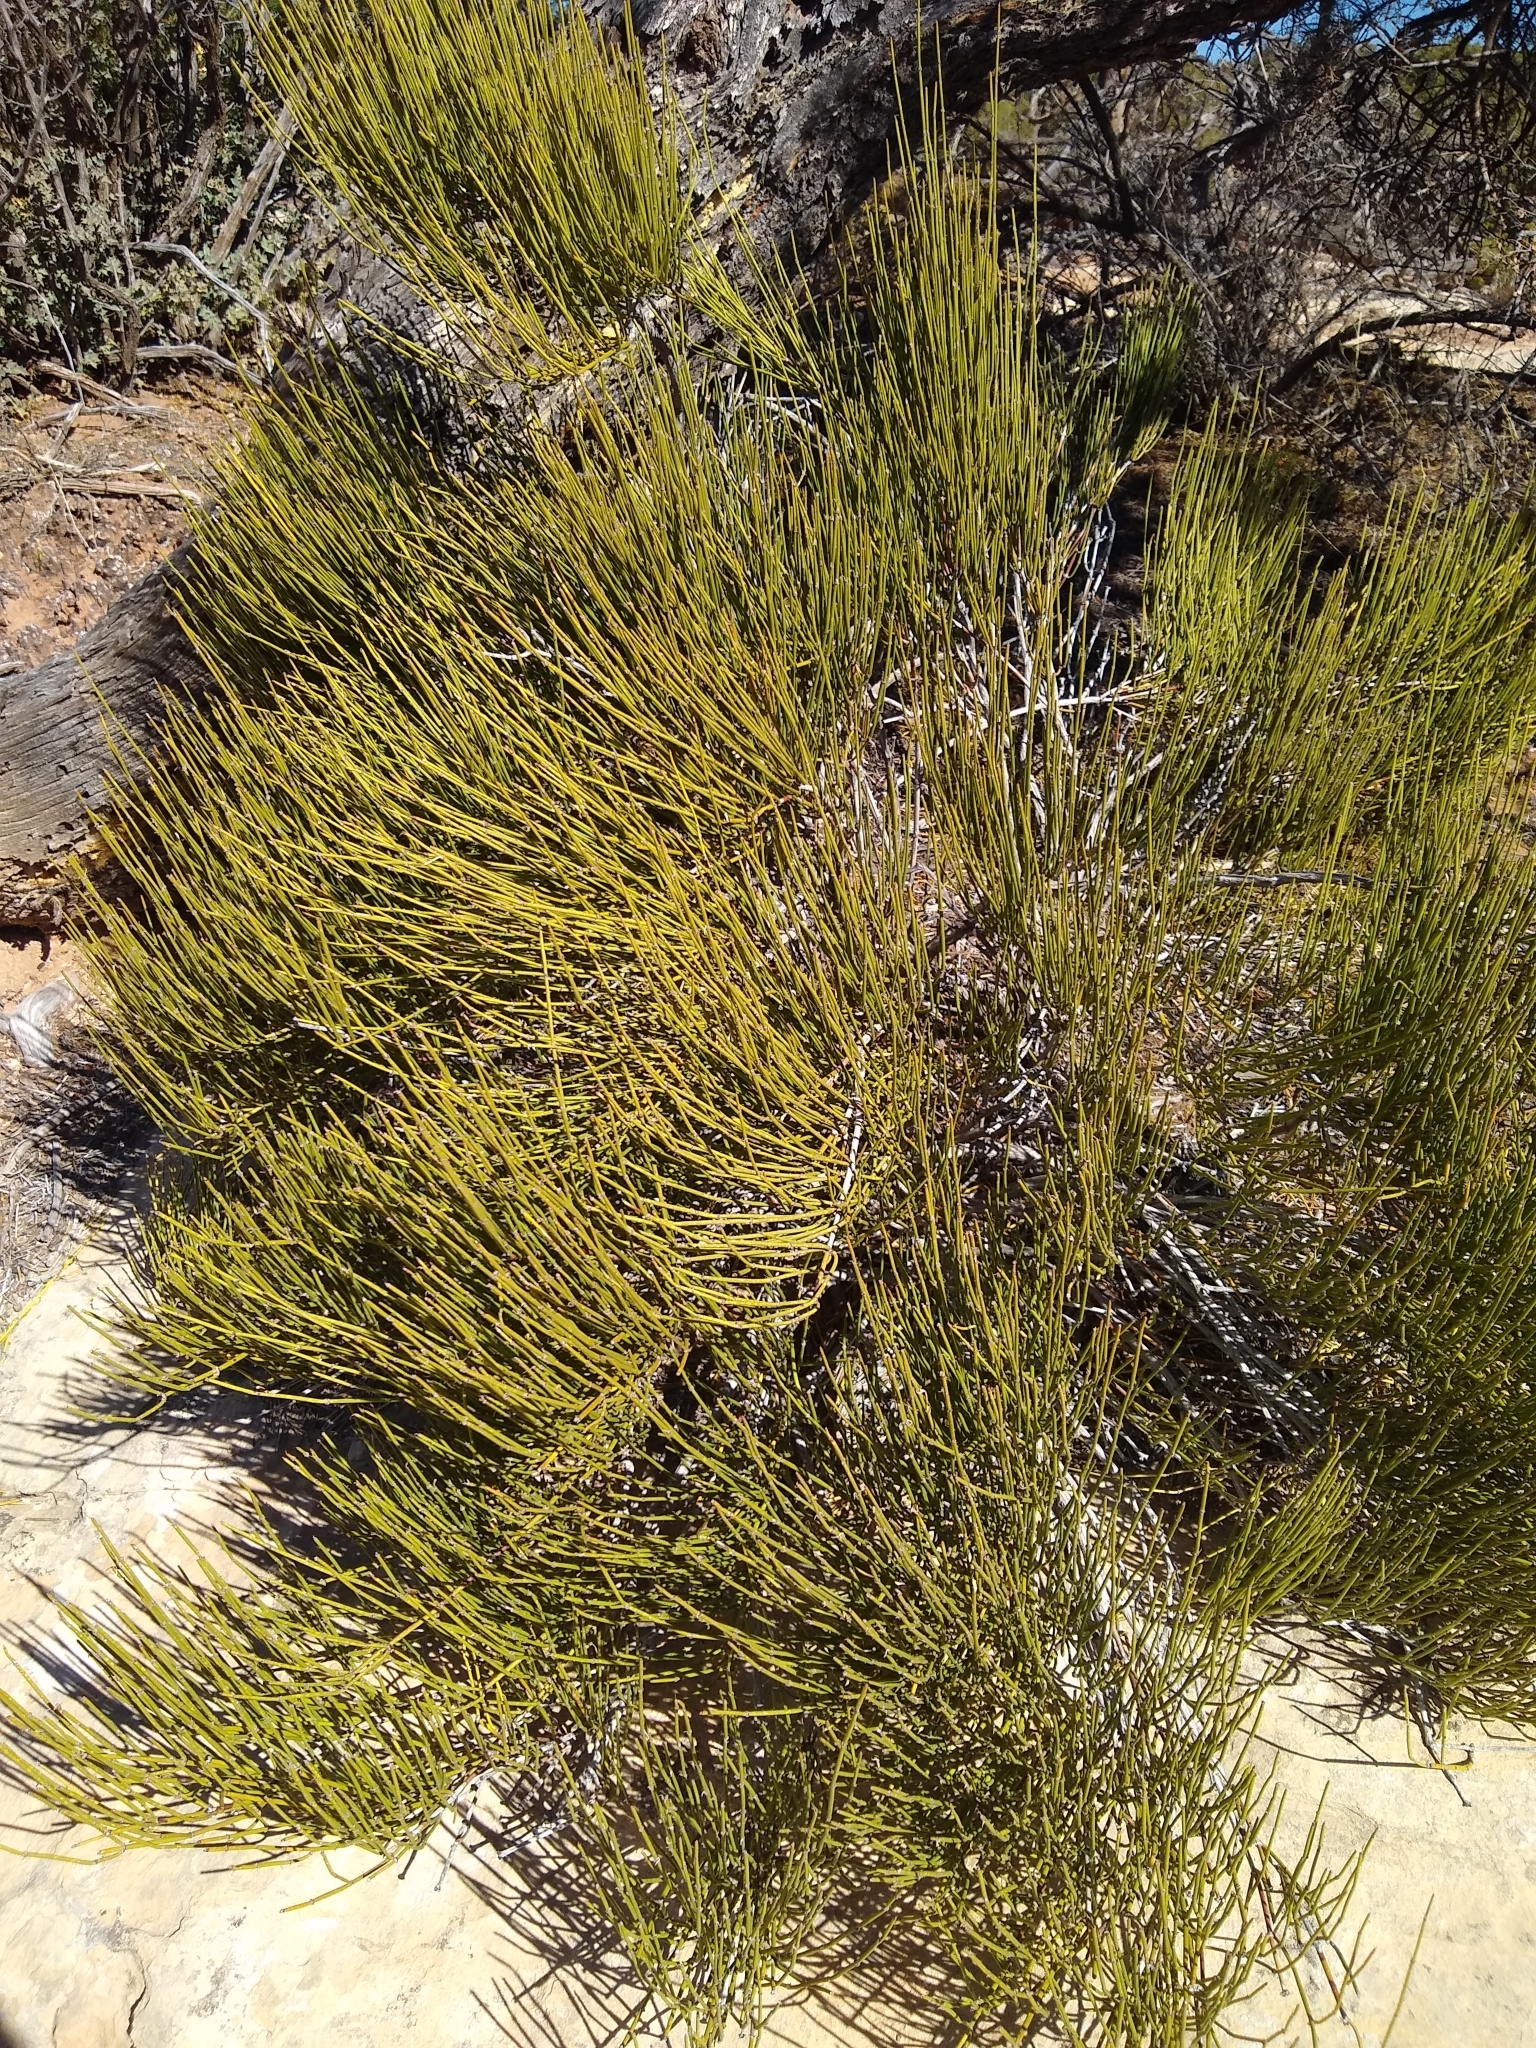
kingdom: Plantae
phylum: Tracheophyta
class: Gnetopsida
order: Ephedrales
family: Ephedraceae
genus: Ephedra
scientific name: Ephedra viridis
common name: Green ephedra
